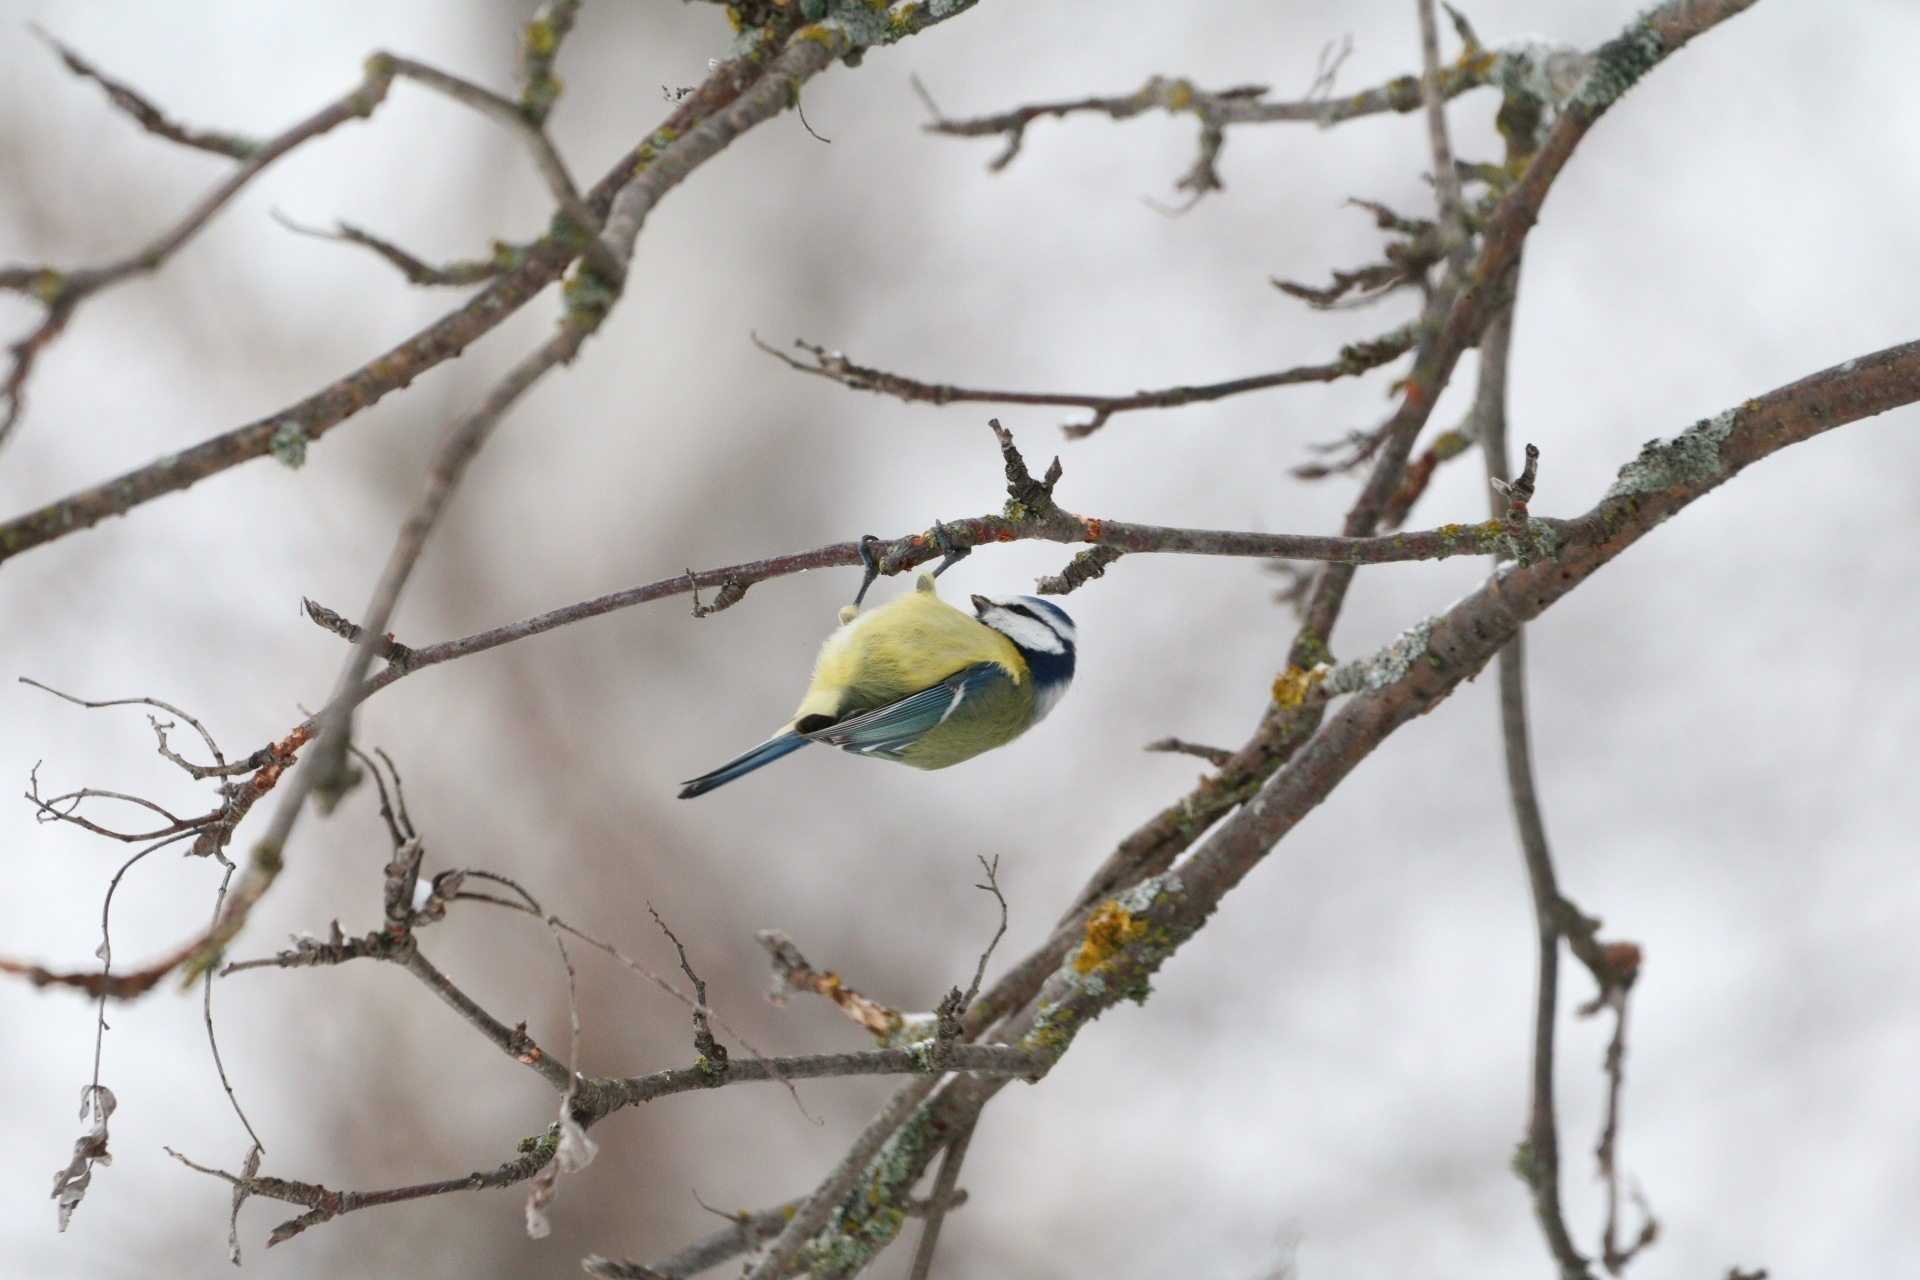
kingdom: Animalia
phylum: Chordata
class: Aves
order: Passeriformes
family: Paridae
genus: Cyanistes
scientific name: Cyanistes caeruleus
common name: Eurasian blue tit
